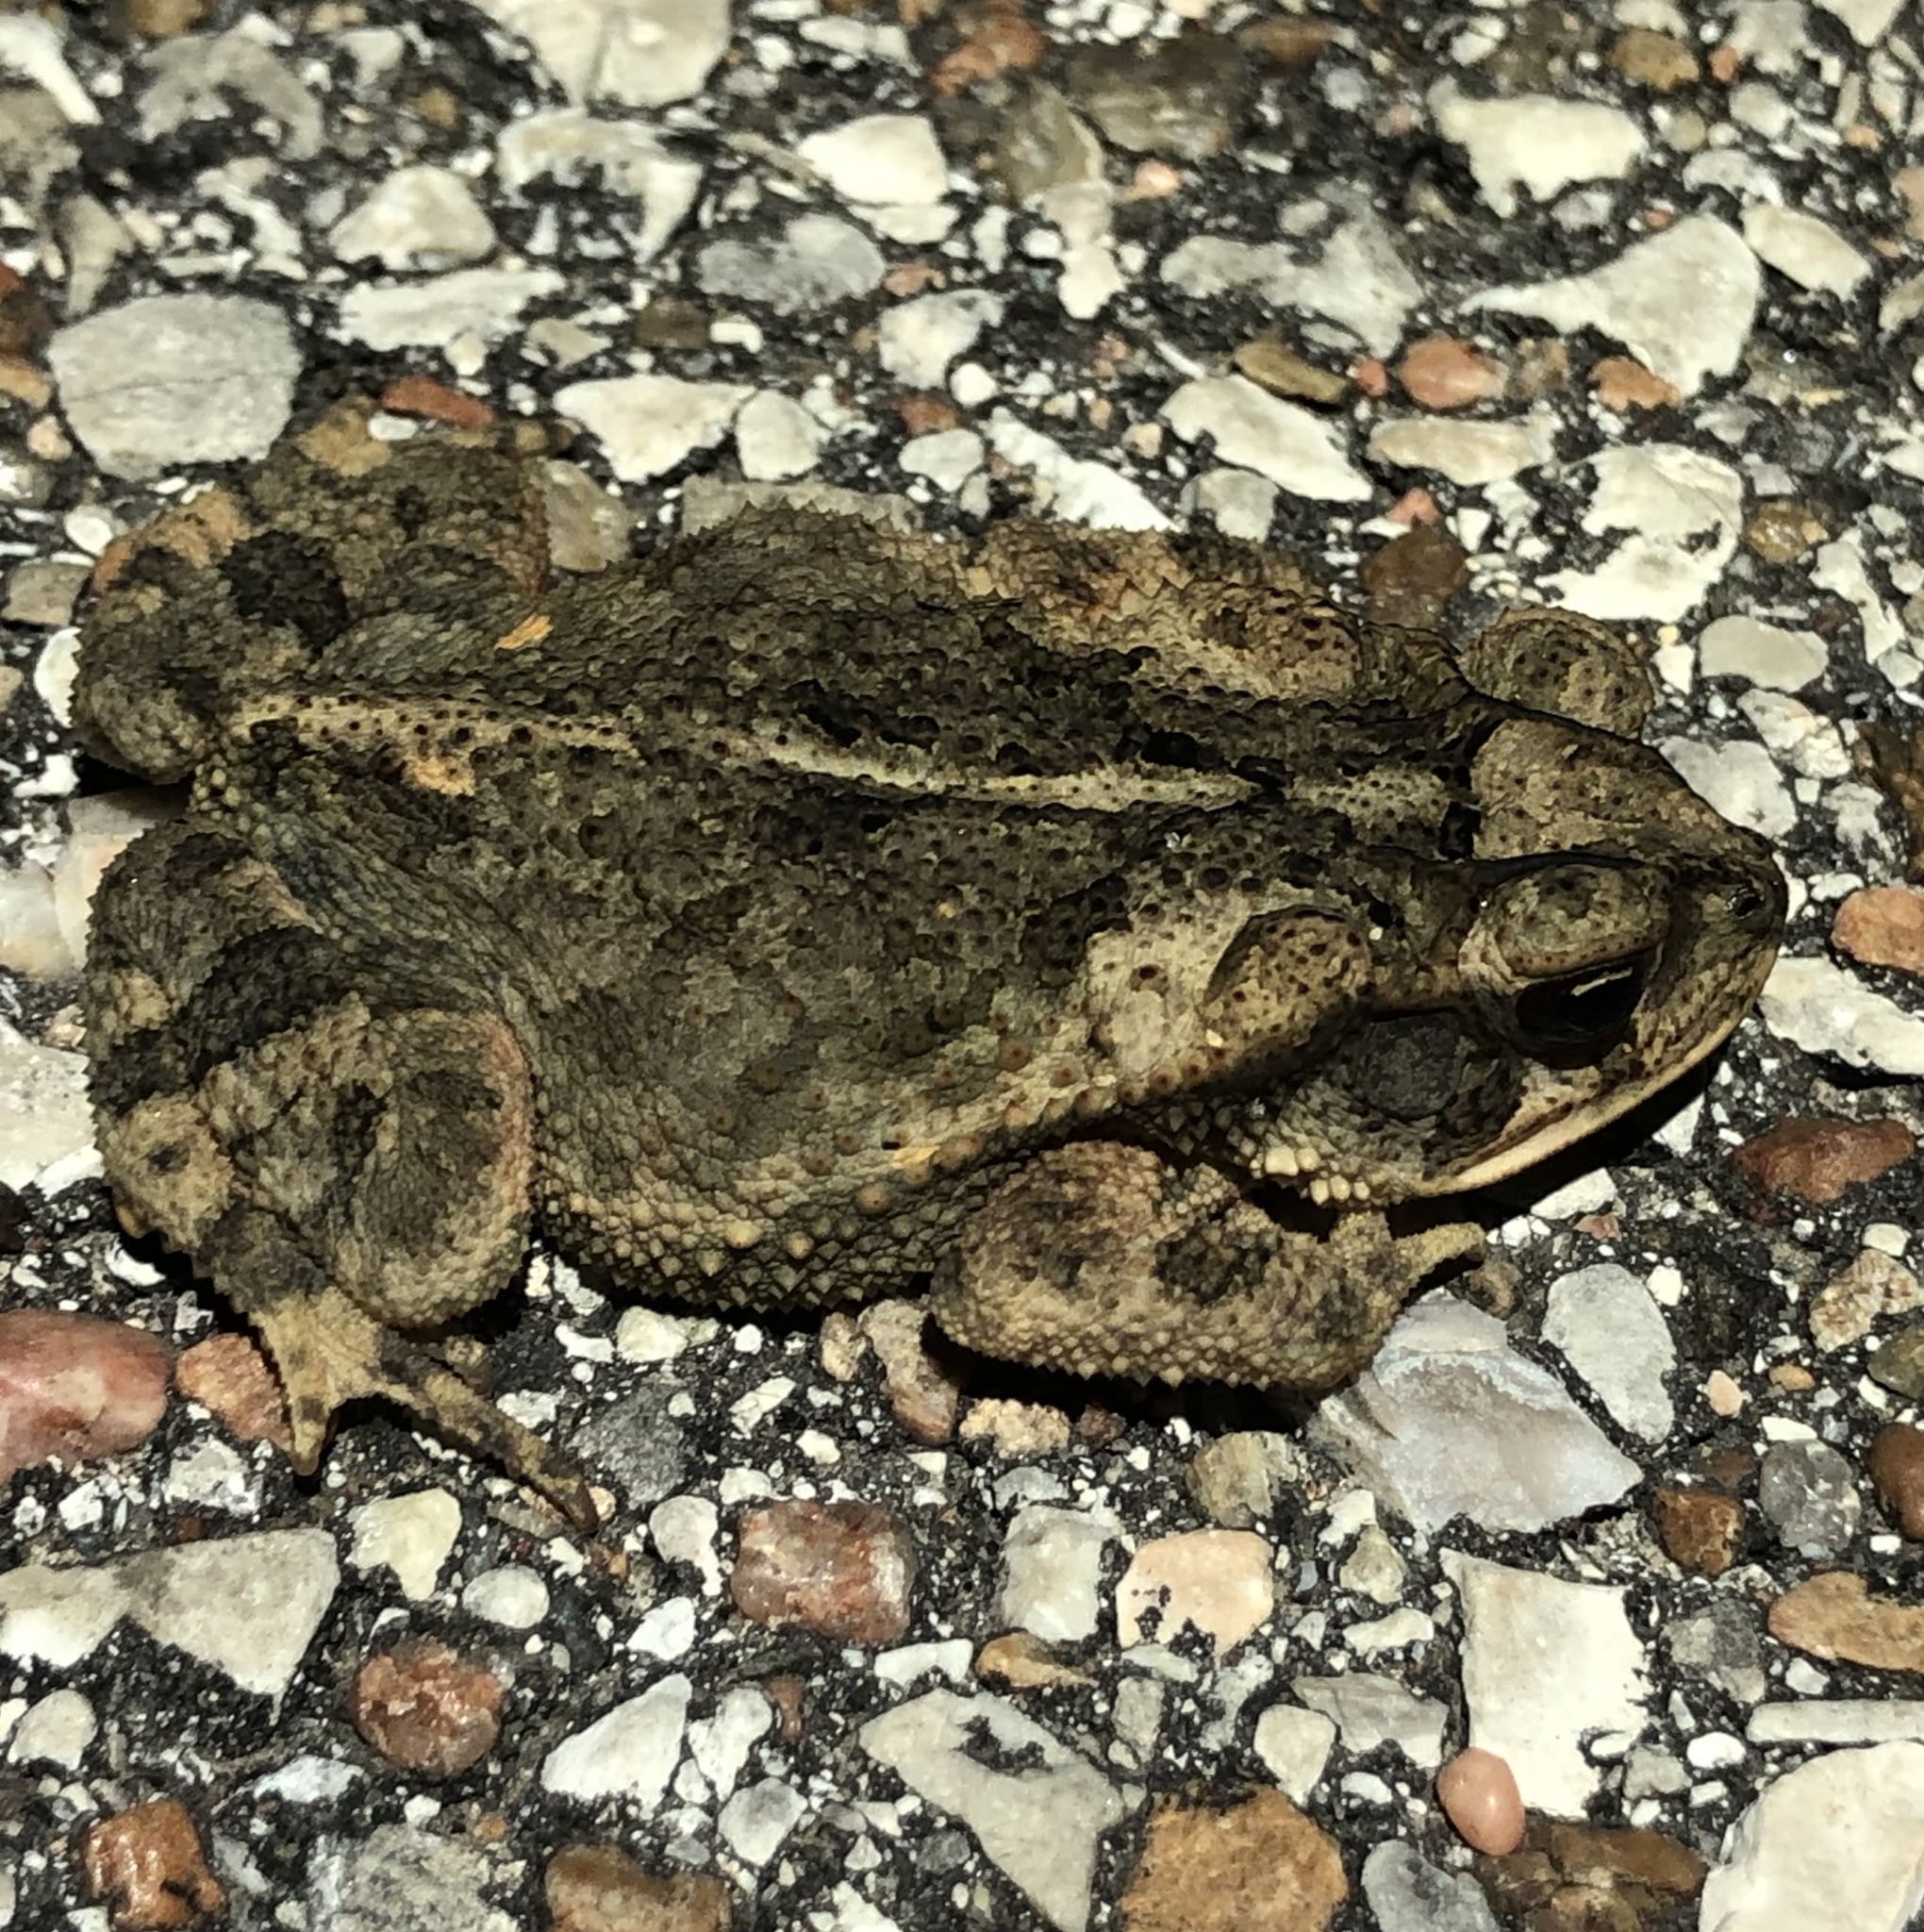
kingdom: Animalia
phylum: Chordata
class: Amphibia
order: Anura
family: Bufonidae
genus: Incilius
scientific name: Incilius nebulifer
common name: Gulf coast toad
